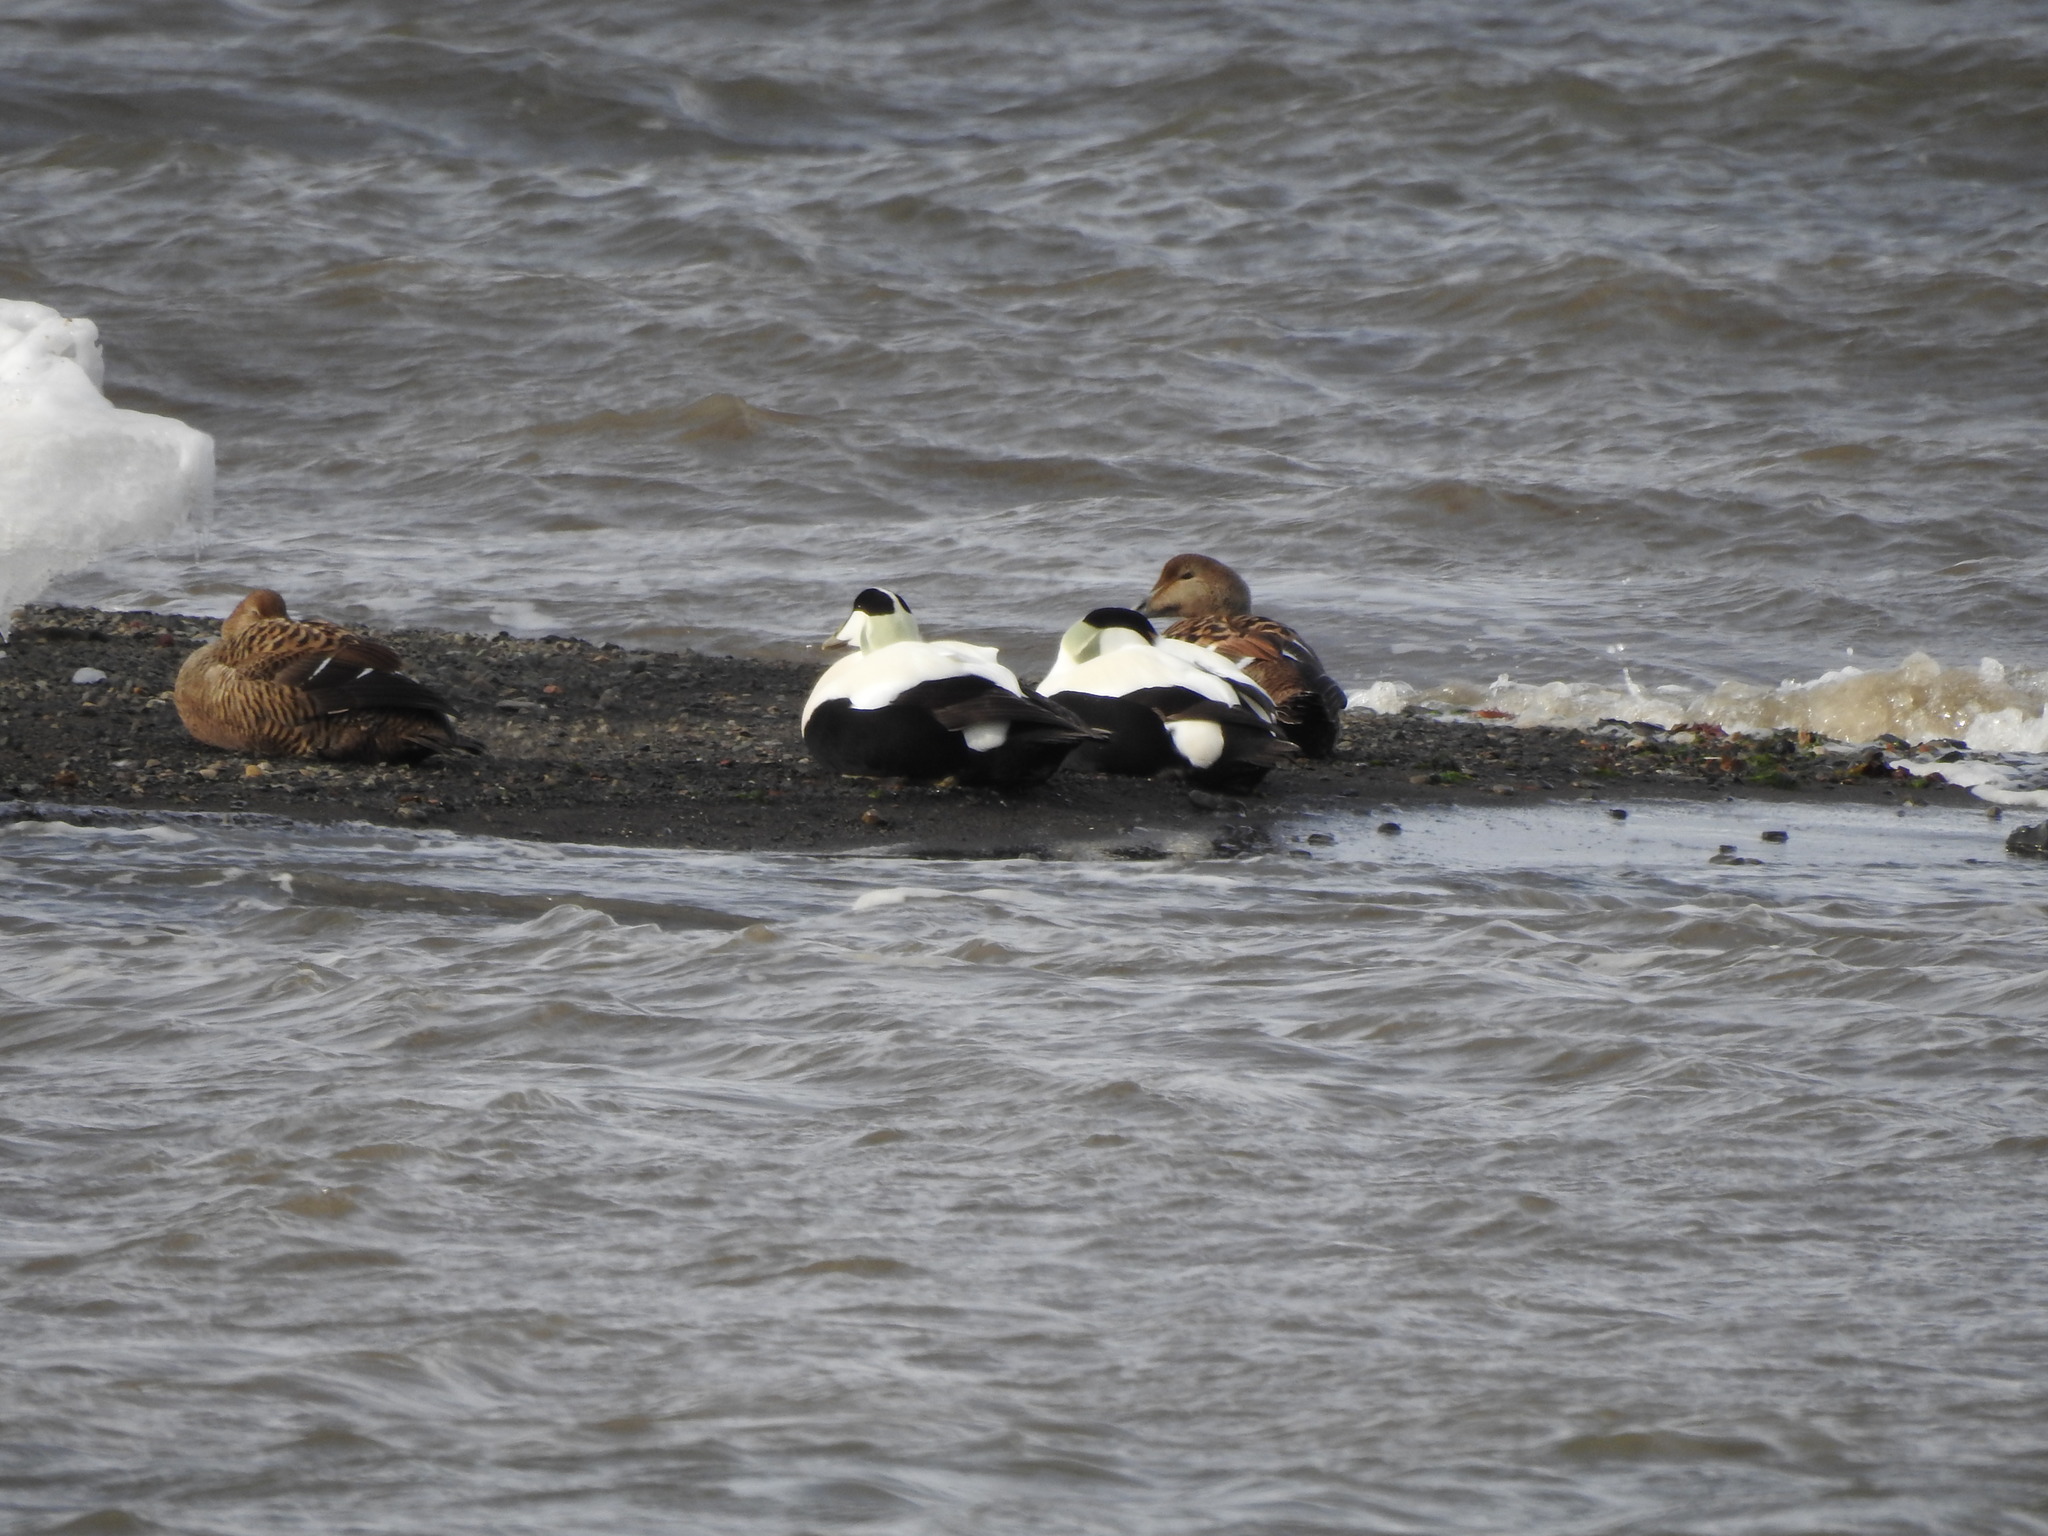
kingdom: Animalia
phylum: Chordata
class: Aves
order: Anseriformes
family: Anatidae
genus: Somateria
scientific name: Somateria mollissima
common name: Common eider
